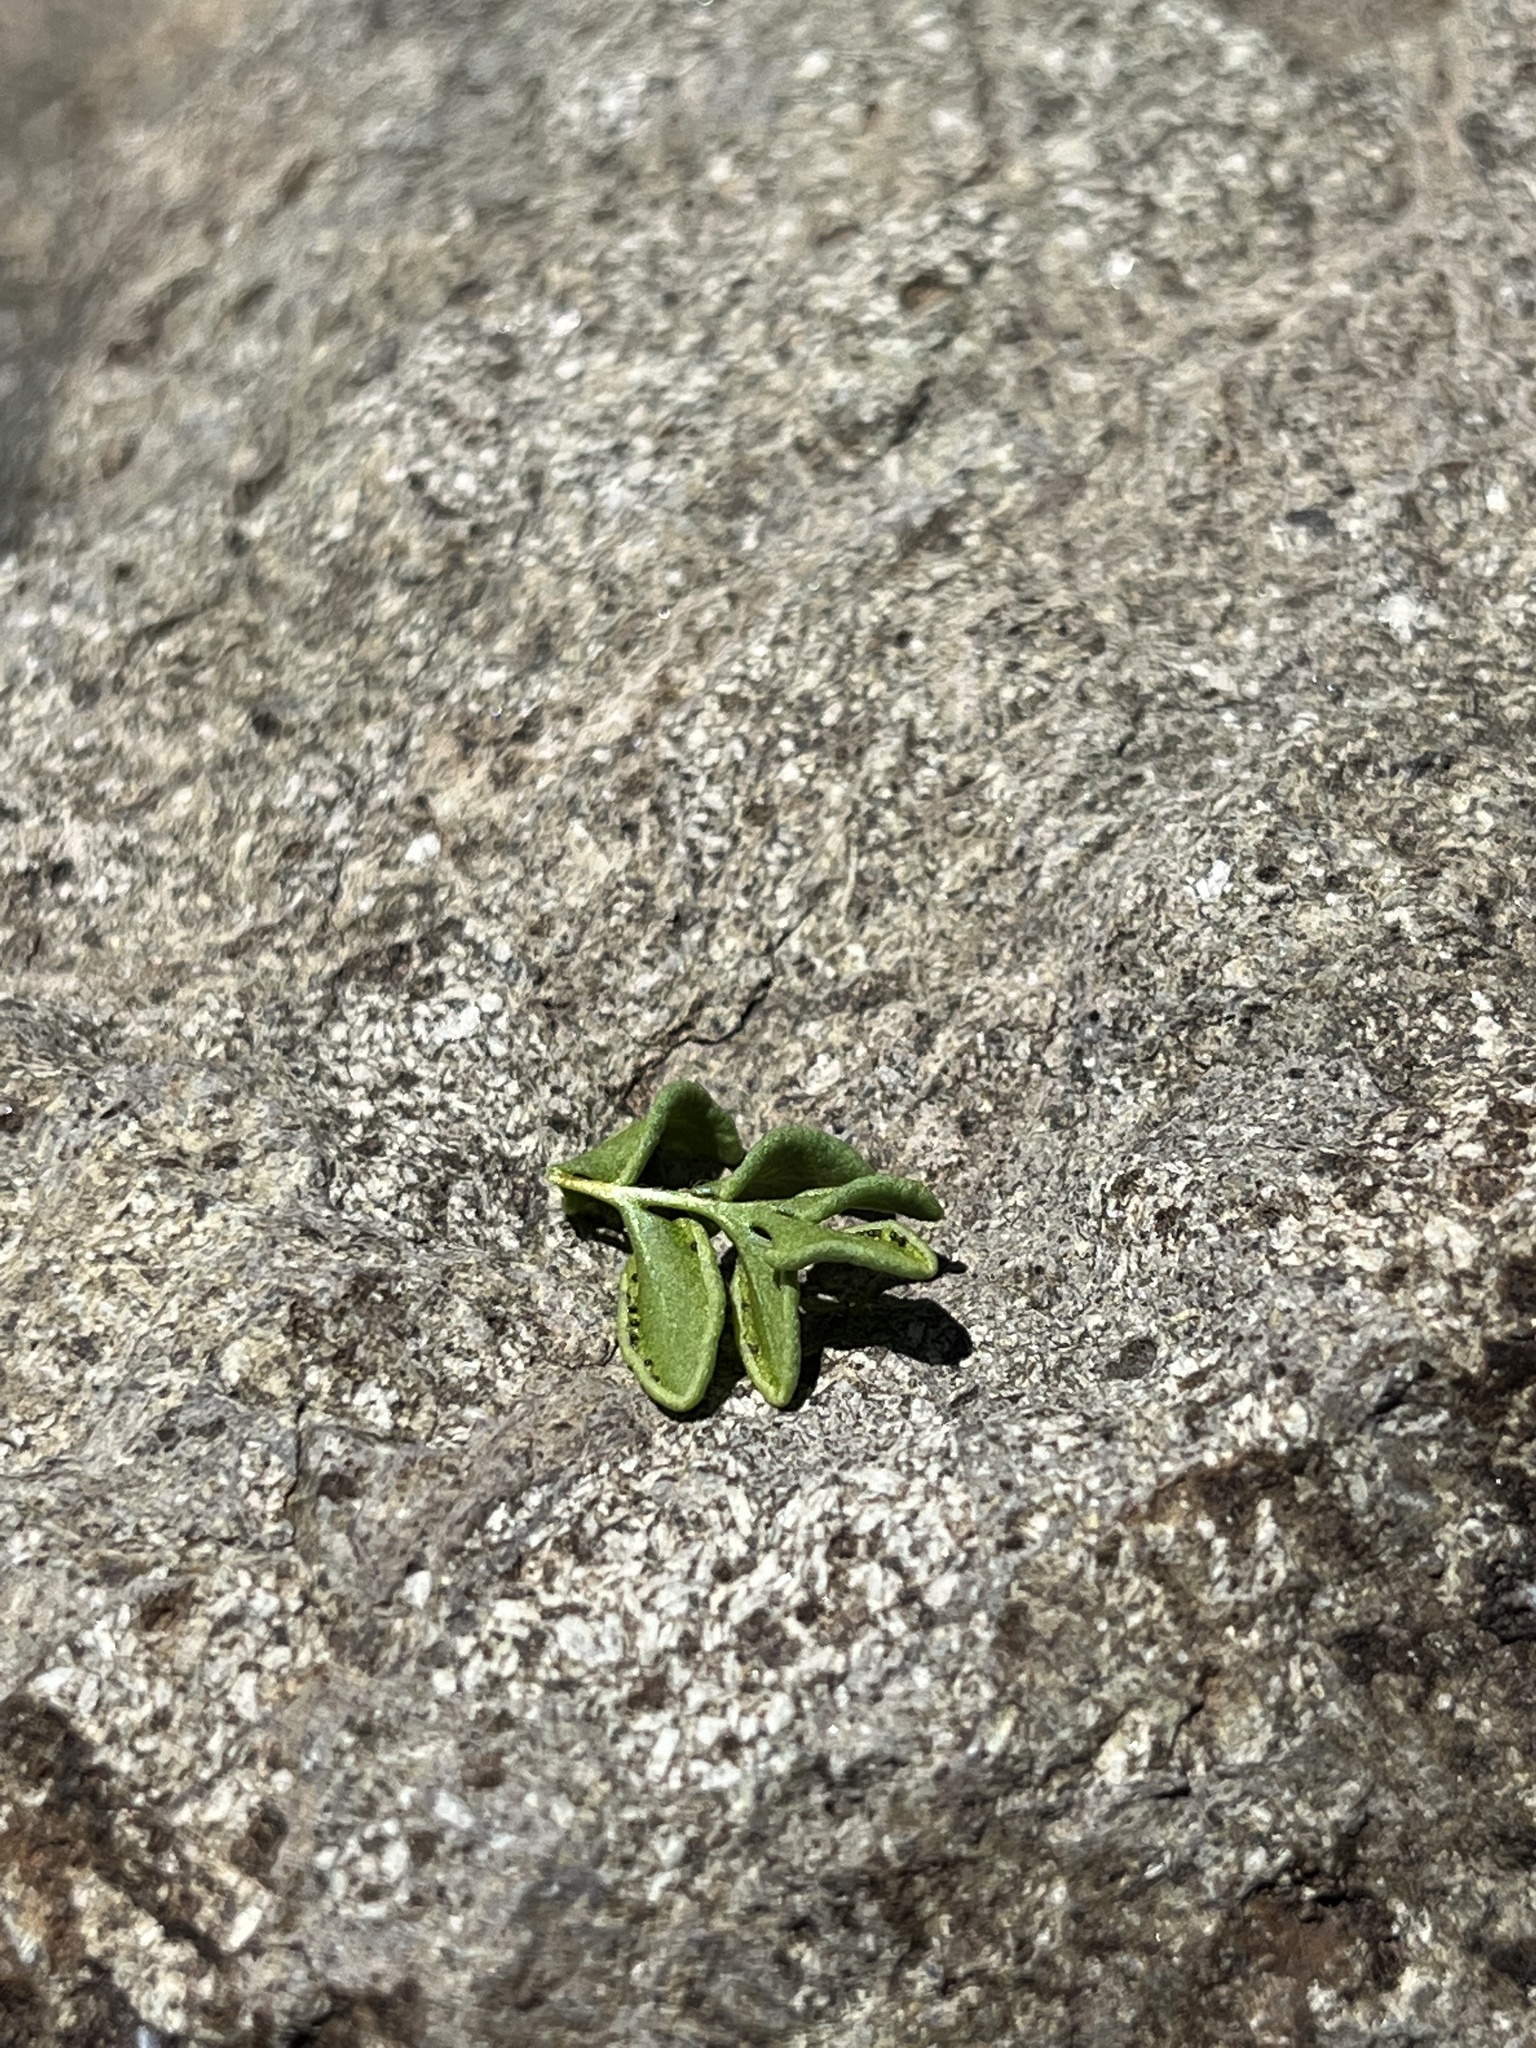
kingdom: Plantae
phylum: Tracheophyta
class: Polypodiopsida
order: Polypodiales
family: Pteridaceae
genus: Pellaea
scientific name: Pellaea breweri
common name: Brewer's cliffbrake
